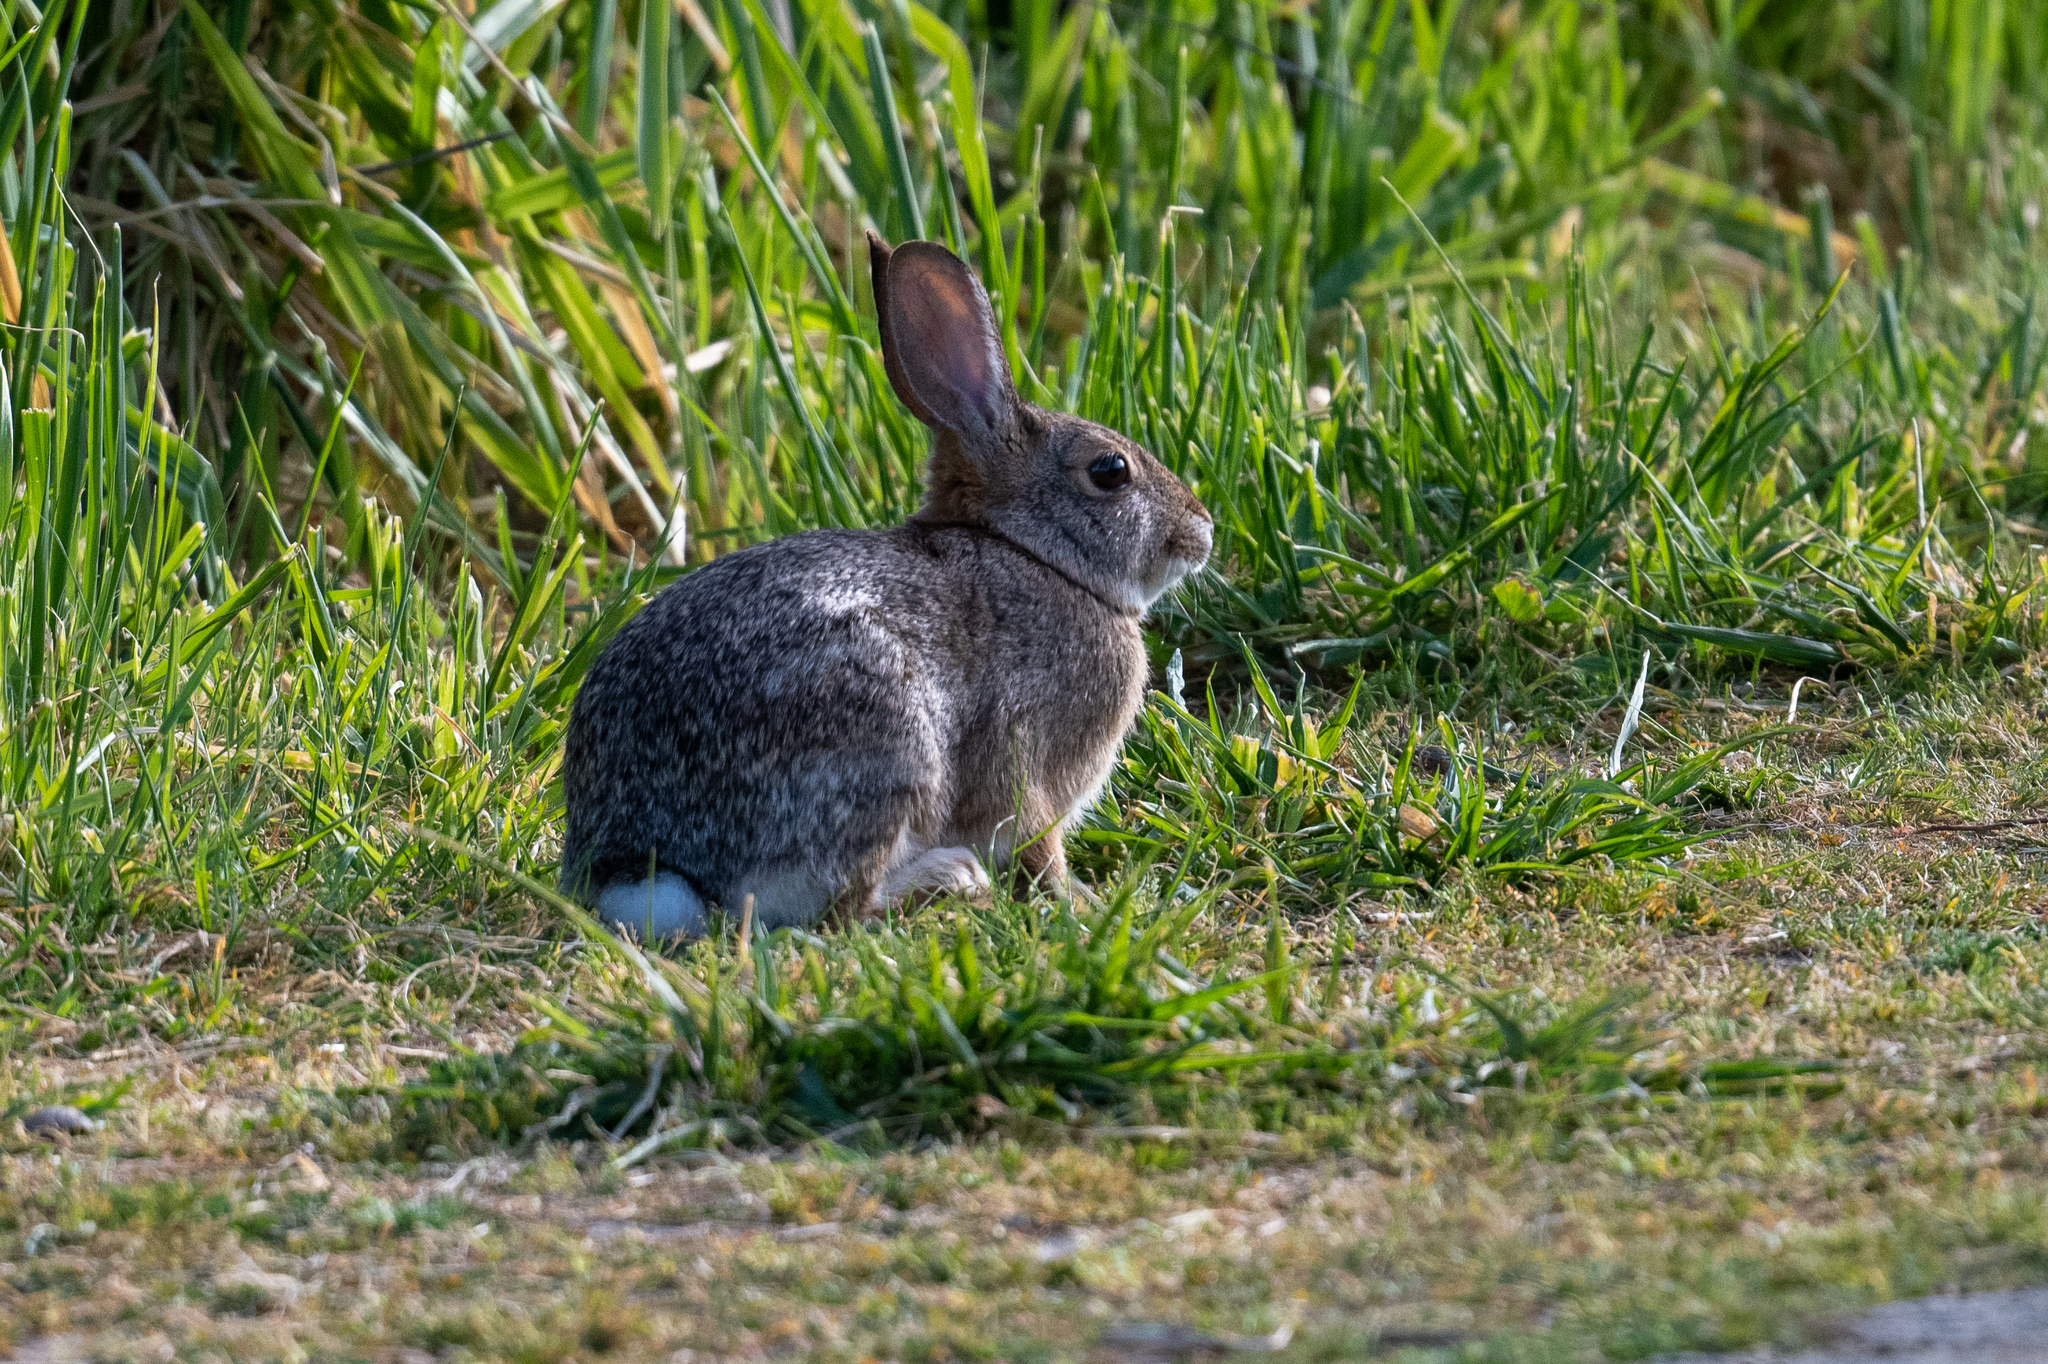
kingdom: Animalia
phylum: Chordata
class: Mammalia
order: Lagomorpha
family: Leporidae
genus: Sylvilagus
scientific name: Sylvilagus audubonii
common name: Desert cottontail
